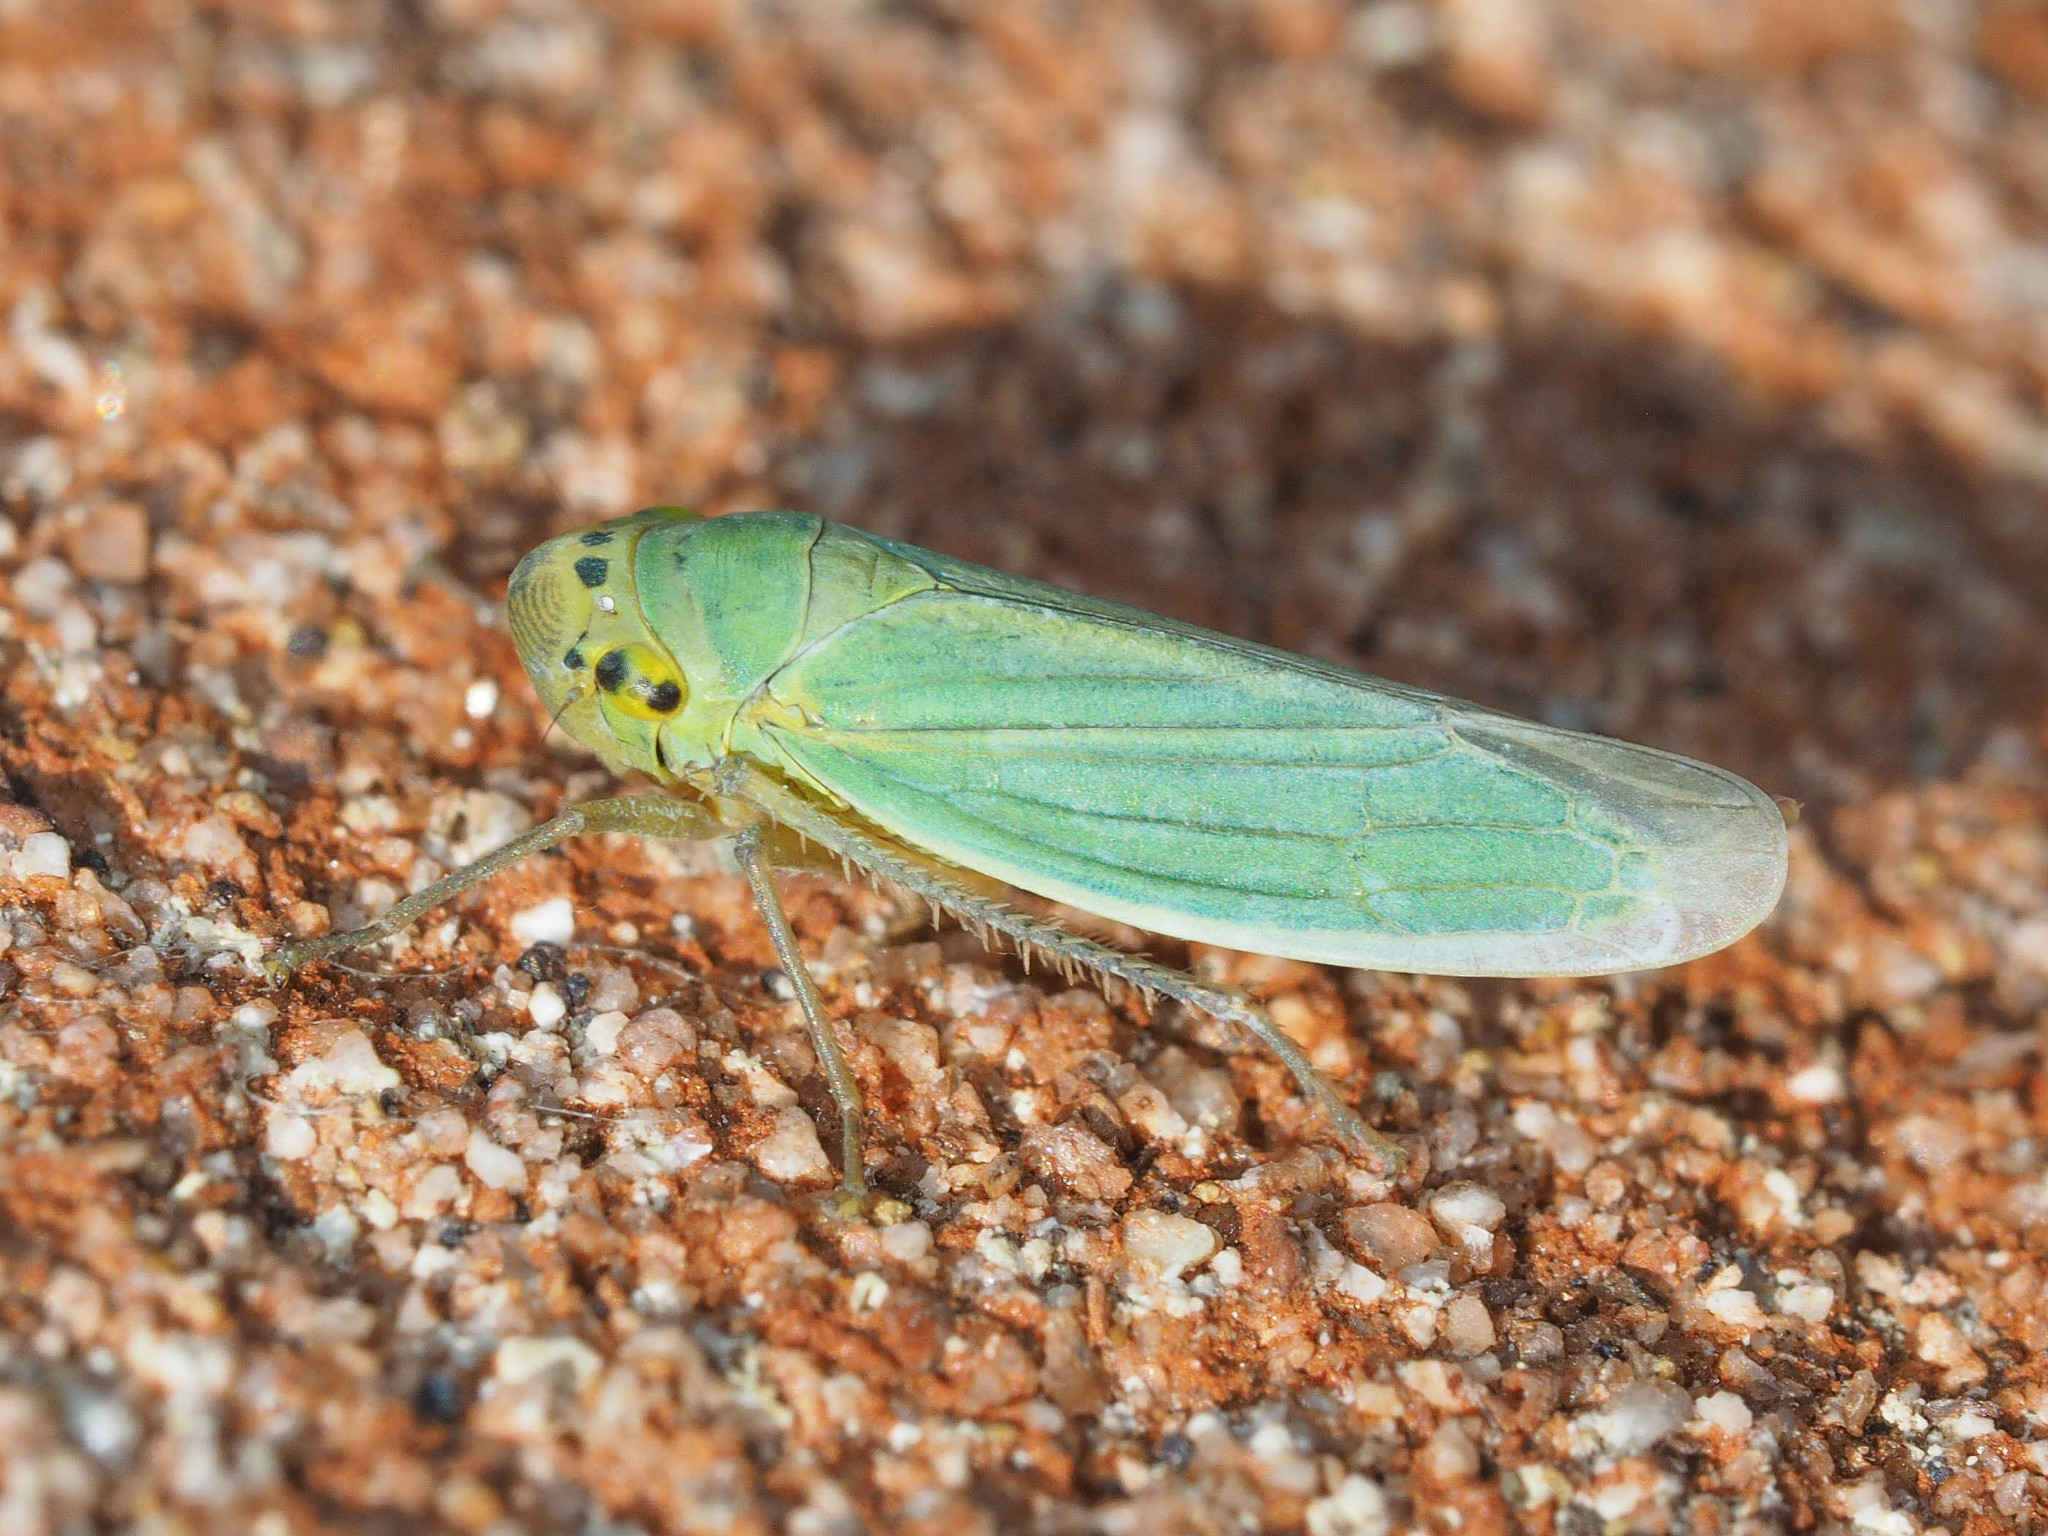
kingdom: Animalia
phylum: Arthropoda
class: Insecta
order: Hemiptera
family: Cicadellidae
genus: Cicadella
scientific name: Cicadella viridis
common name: Leafhopper
